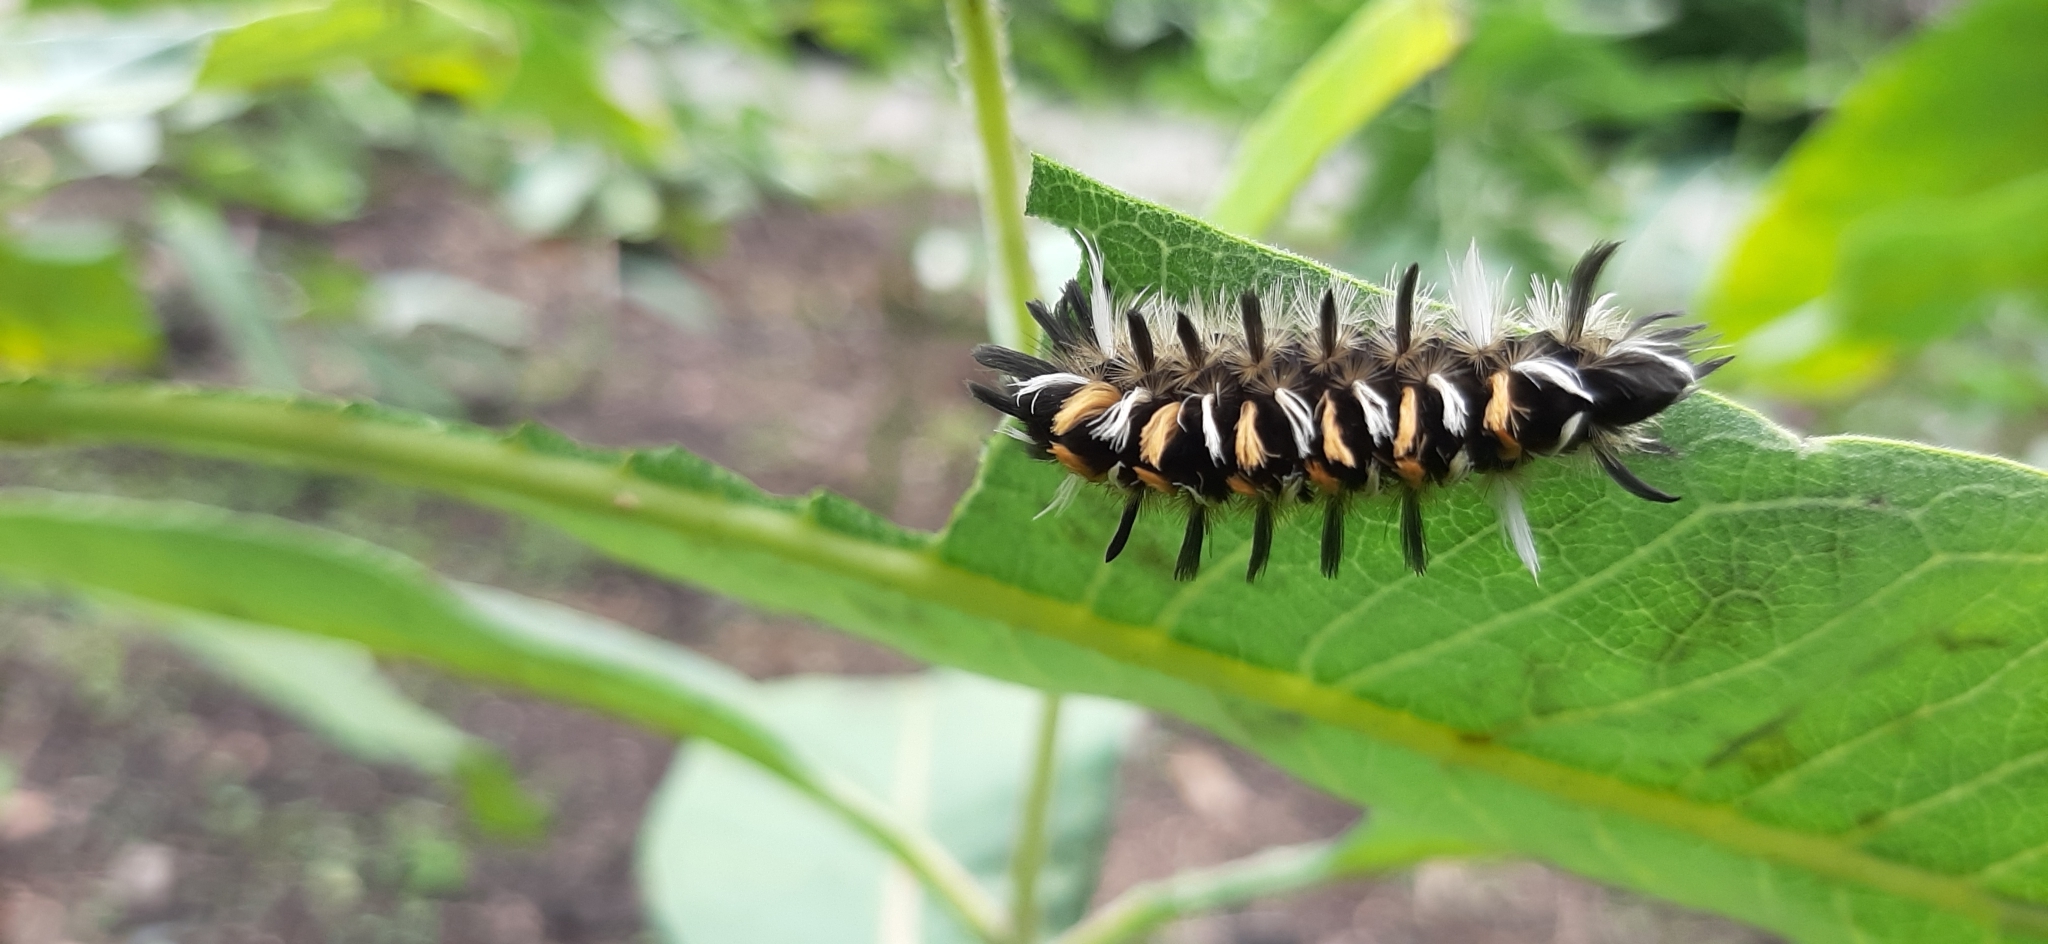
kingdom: Animalia
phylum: Arthropoda
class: Insecta
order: Lepidoptera
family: Erebidae
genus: Euchaetes
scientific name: Euchaetes egle
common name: Milkweed tussock moth
